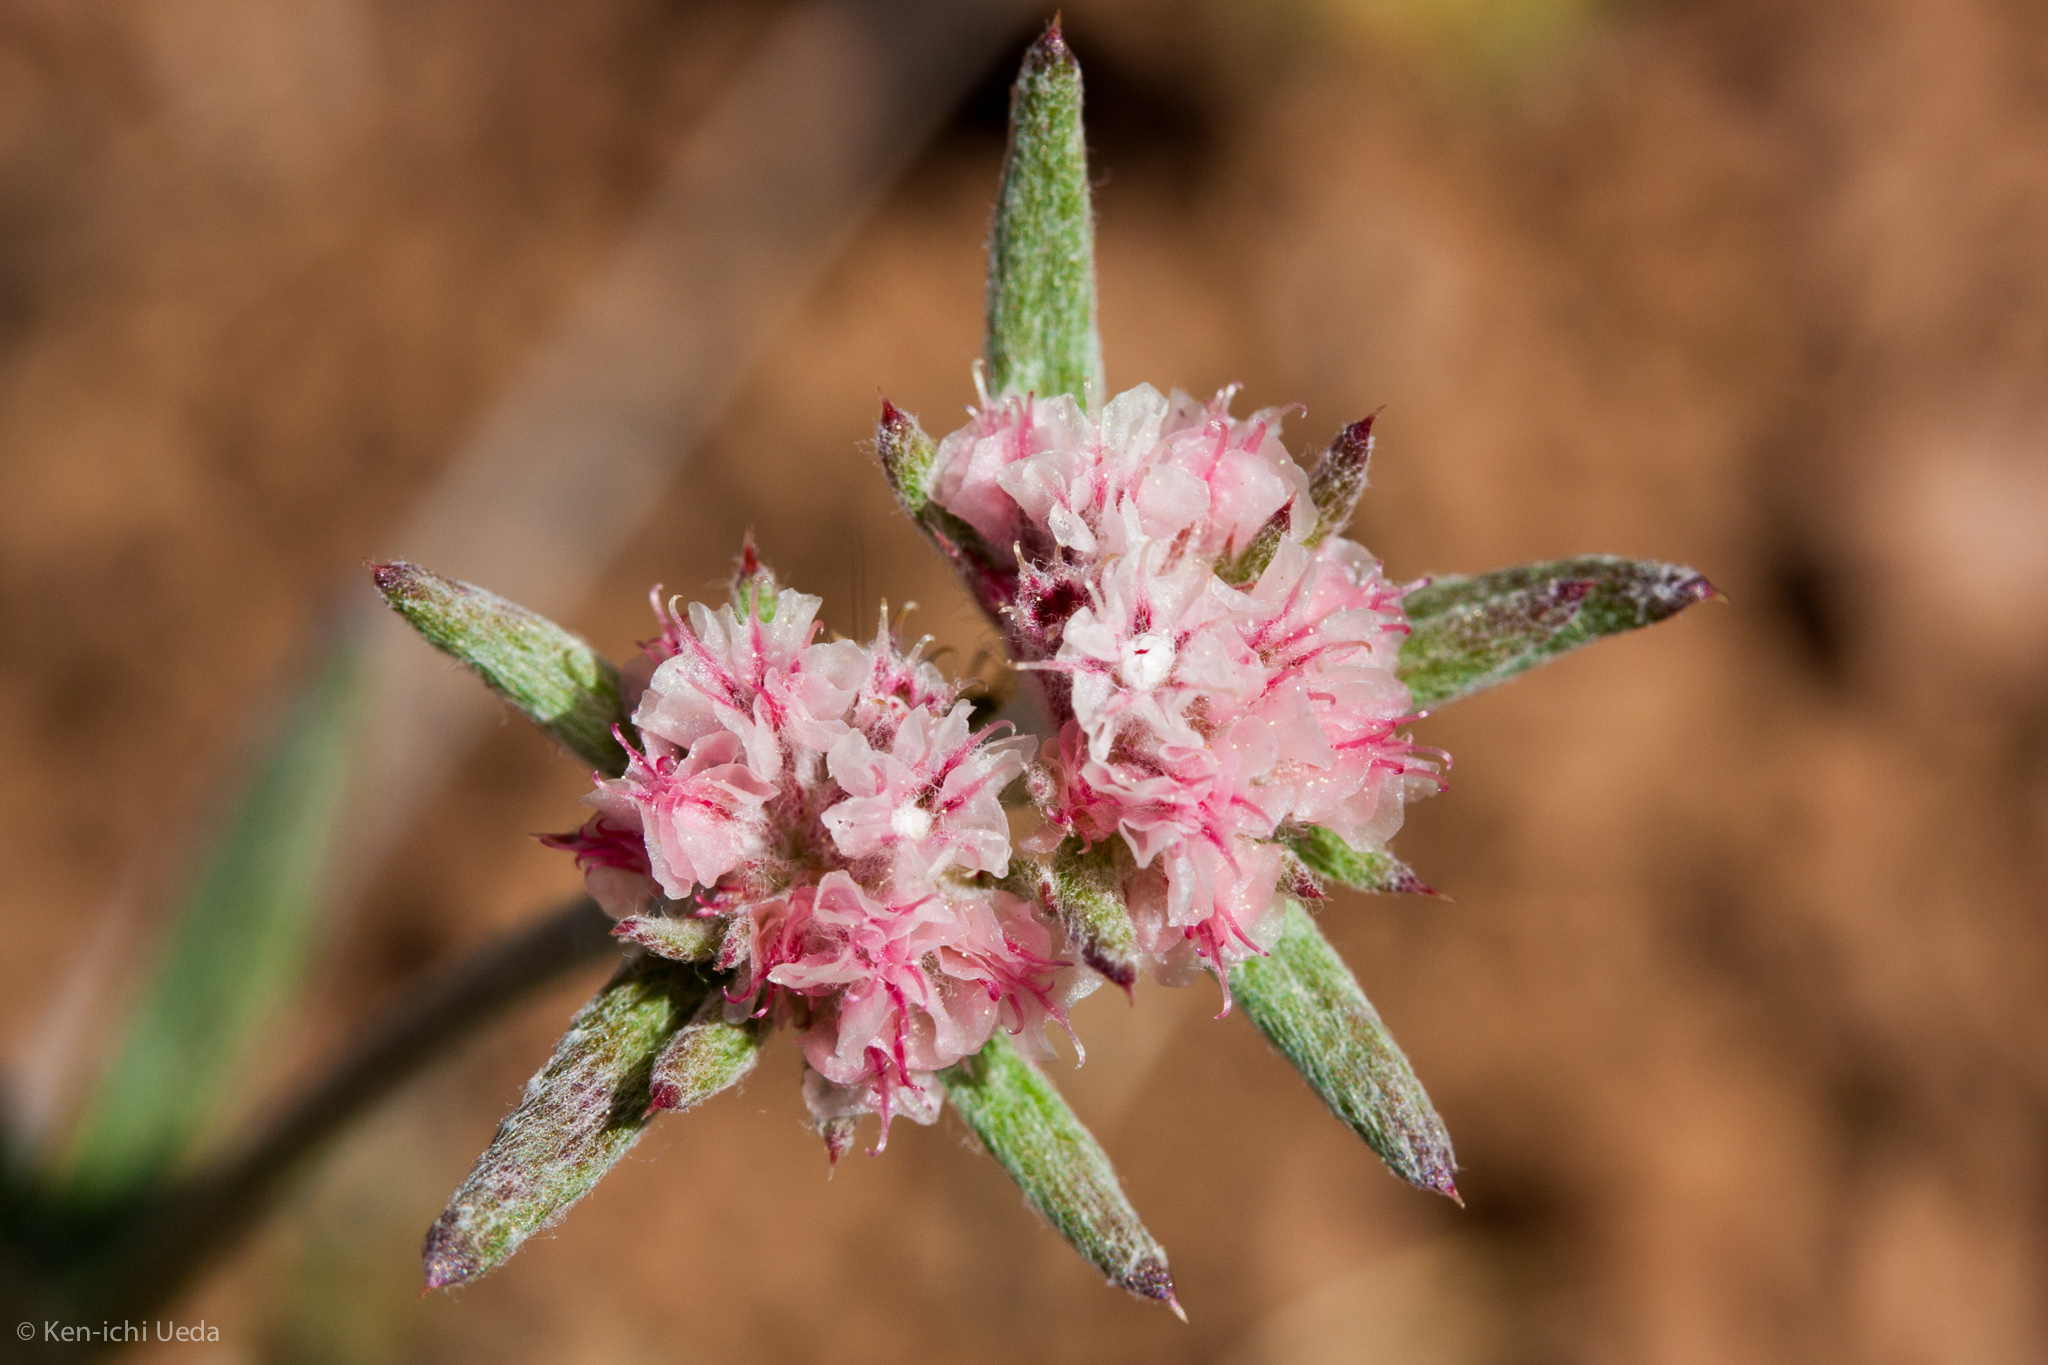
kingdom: Plantae
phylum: Tracheophyta
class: Magnoliopsida
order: Caryophyllales
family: Polygonaceae
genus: Chorizanthe
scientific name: Chorizanthe membranacea
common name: Pink spineflower
